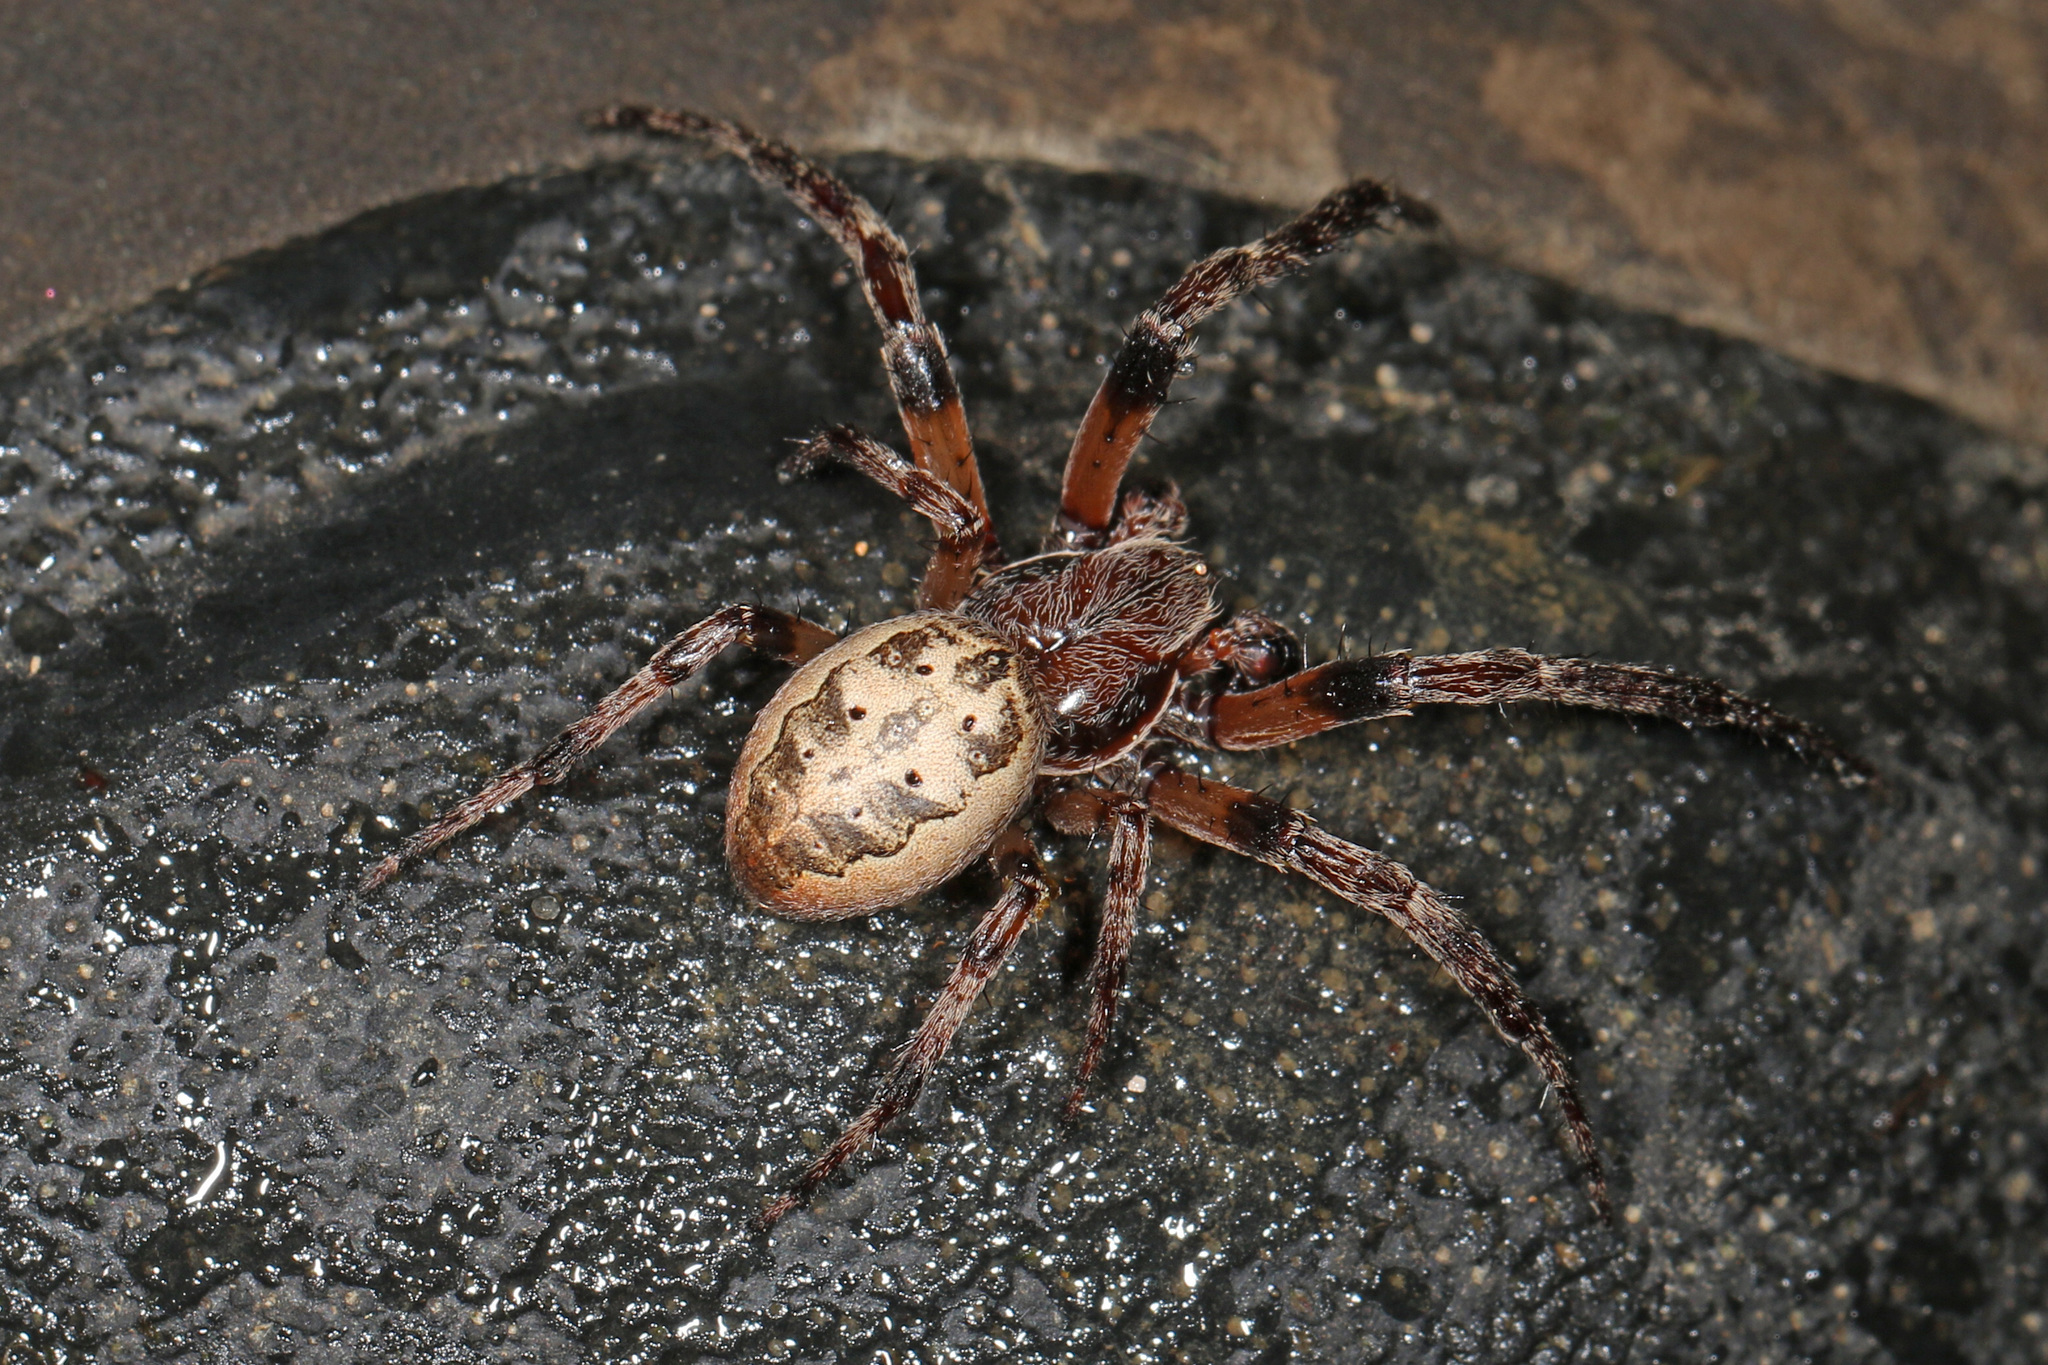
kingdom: Animalia
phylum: Arthropoda
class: Arachnida
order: Araneae
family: Araneidae
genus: Larinioides
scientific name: Larinioides cornutus
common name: Furrow orbweaver
